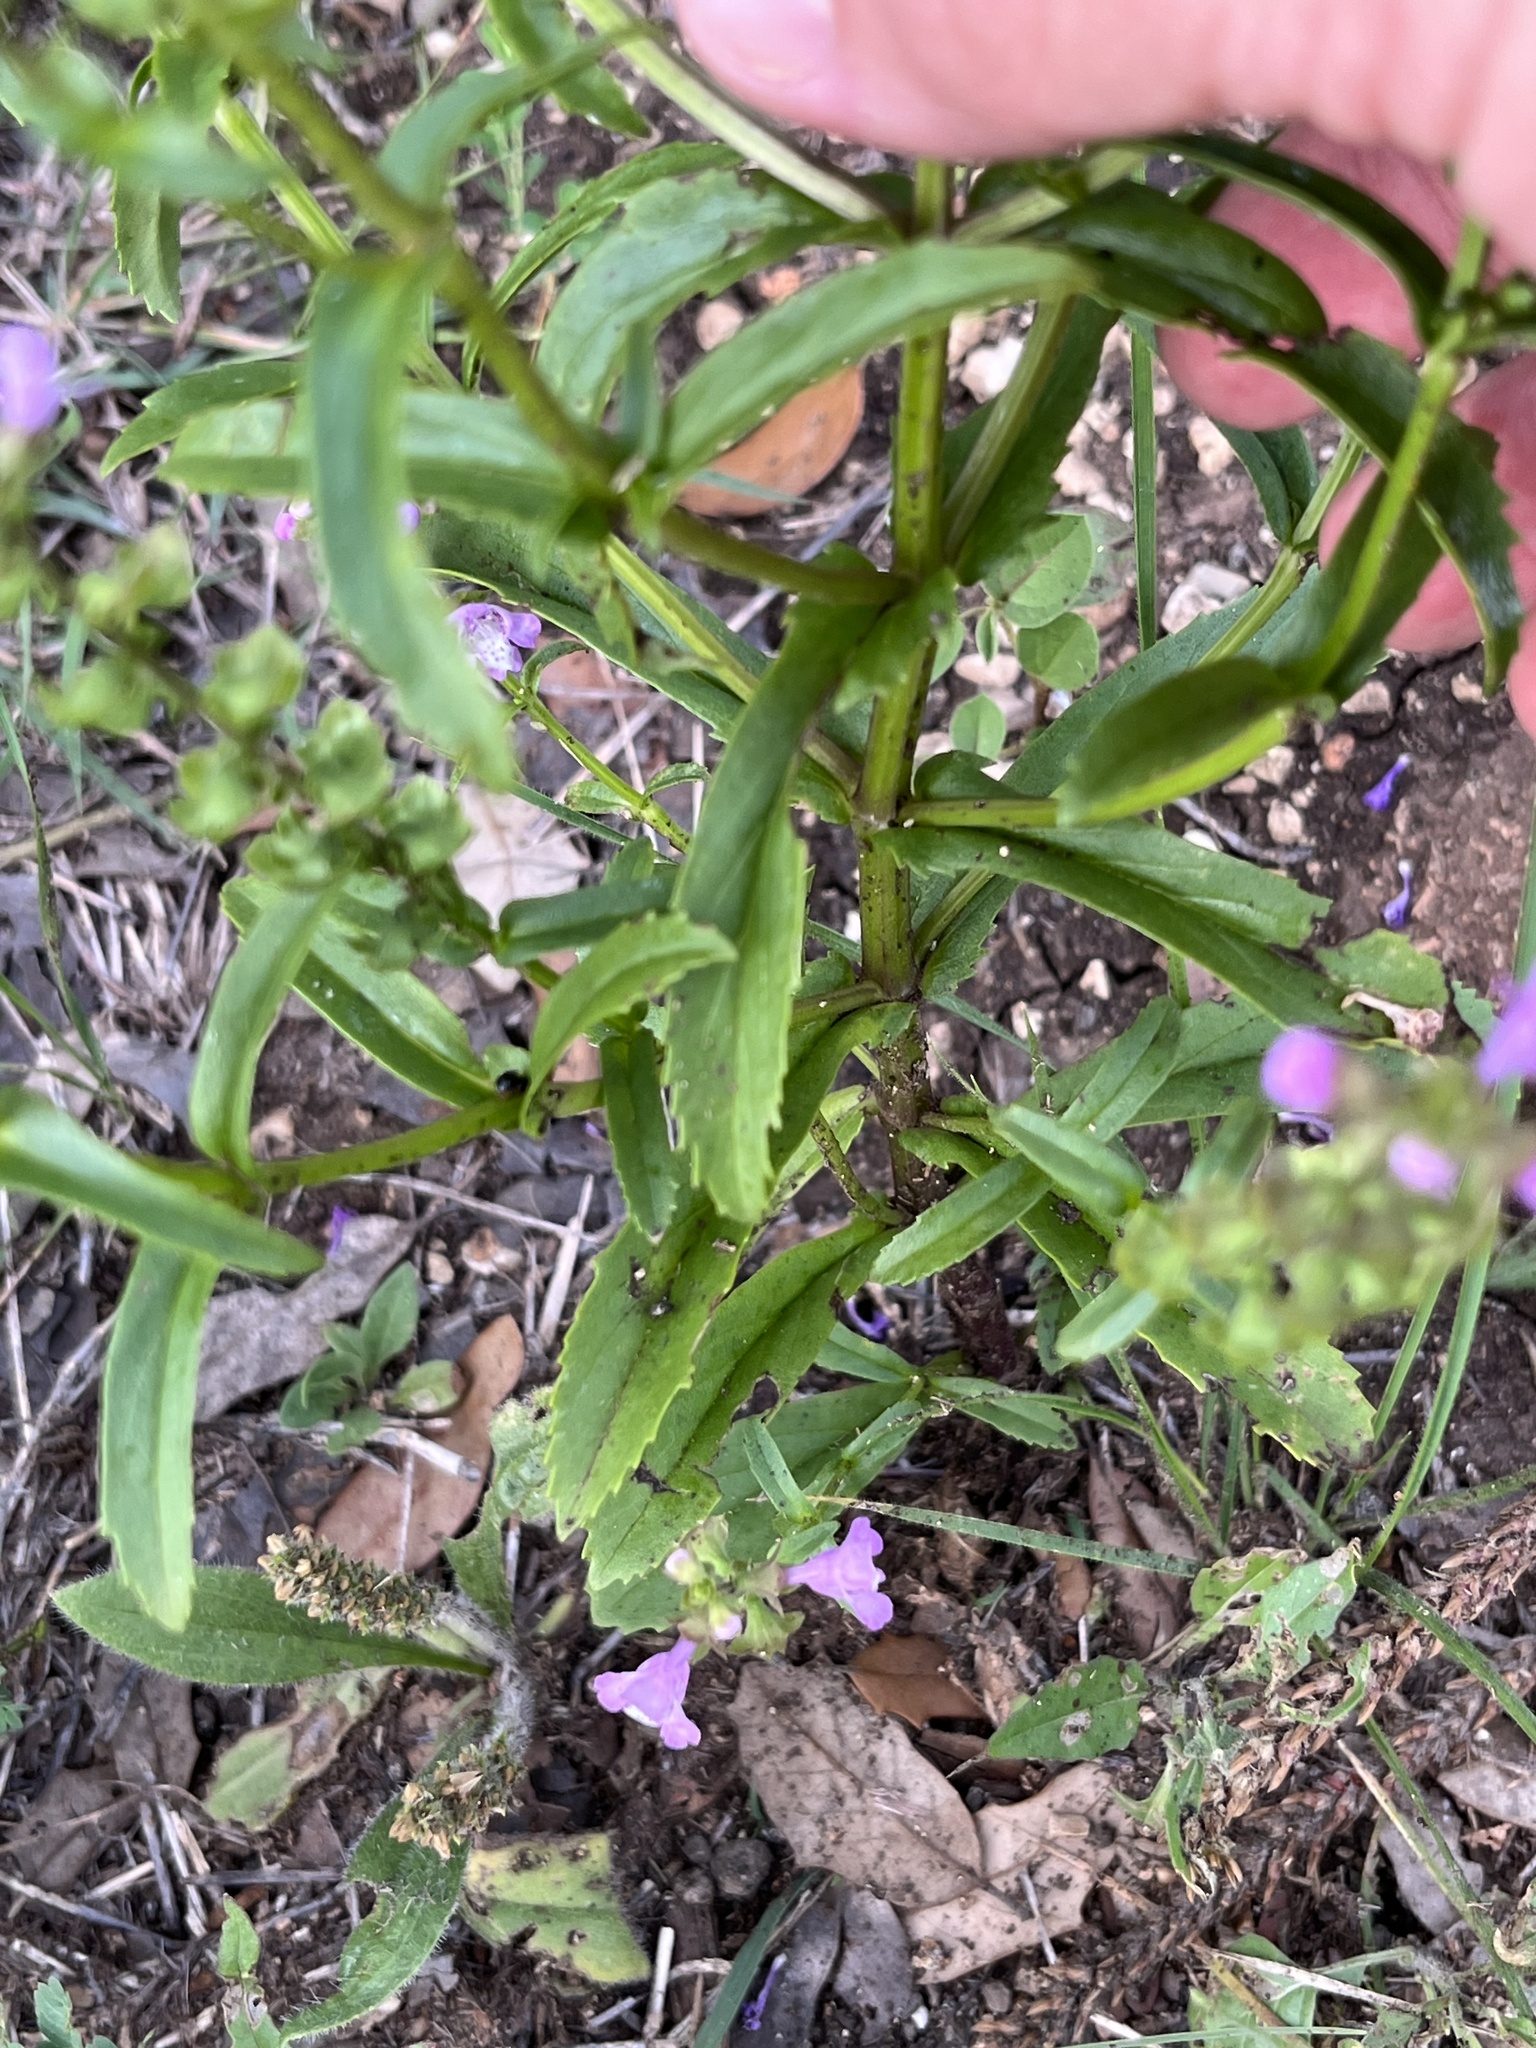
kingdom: Plantae
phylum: Tracheophyta
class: Magnoliopsida
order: Lamiales
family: Lamiaceae
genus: Warnockia
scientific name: Warnockia scutellarioides
